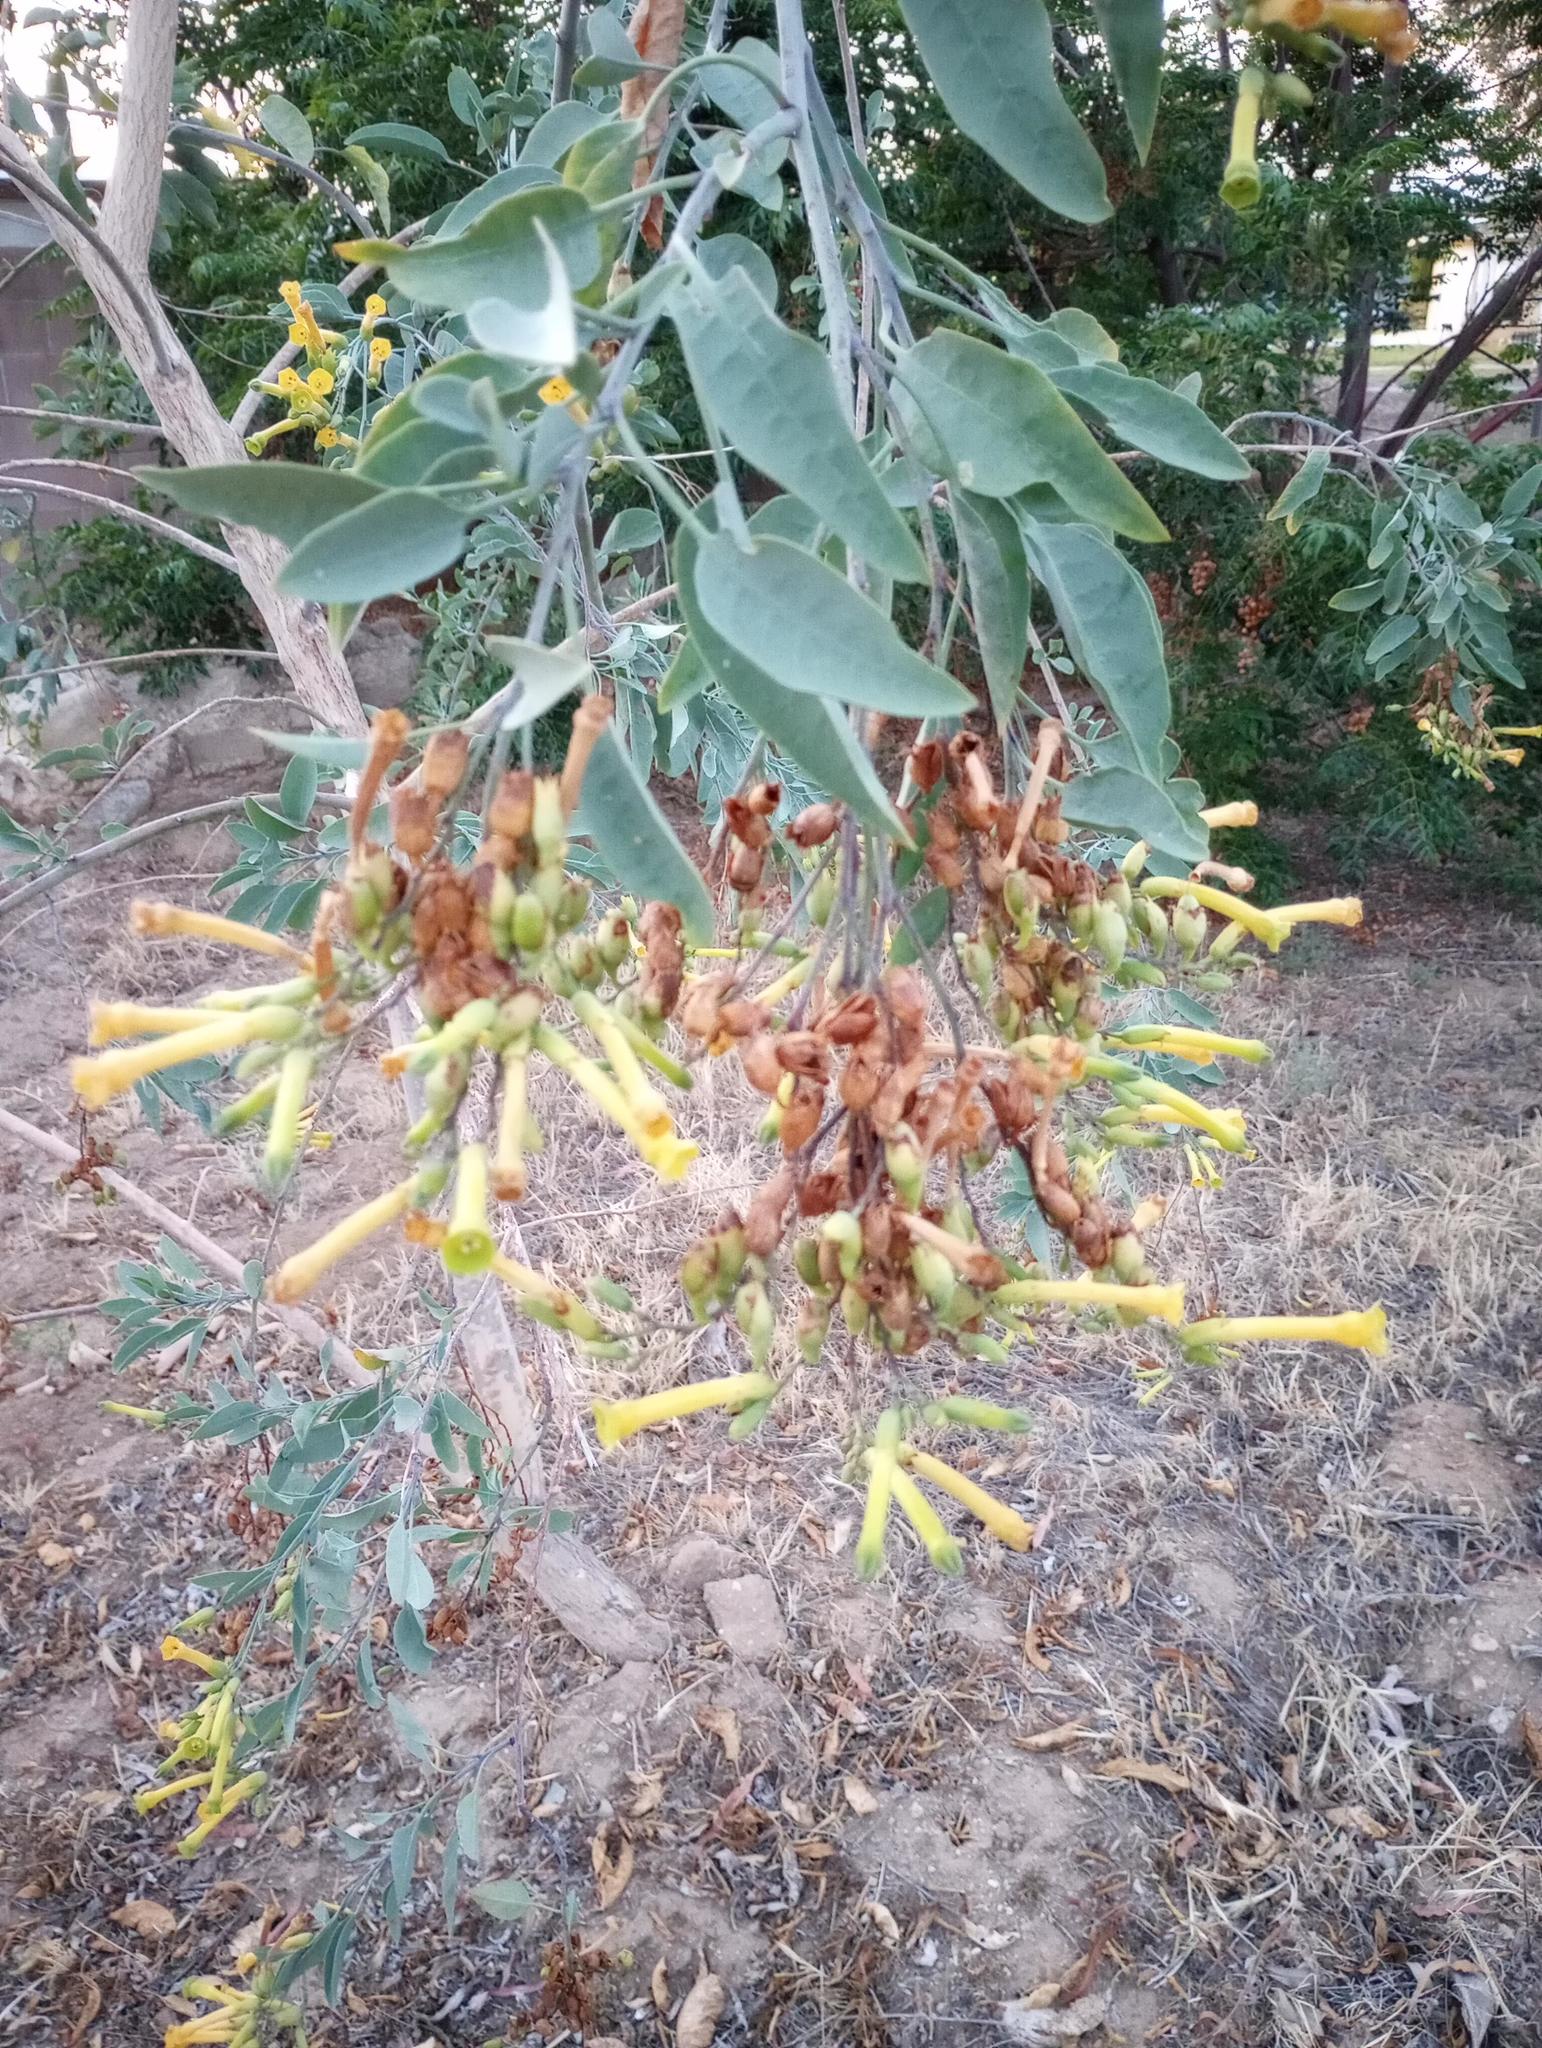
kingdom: Plantae
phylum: Tracheophyta
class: Magnoliopsida
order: Solanales
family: Solanaceae
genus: Nicotiana
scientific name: Nicotiana glauca
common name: Tree tobacco
